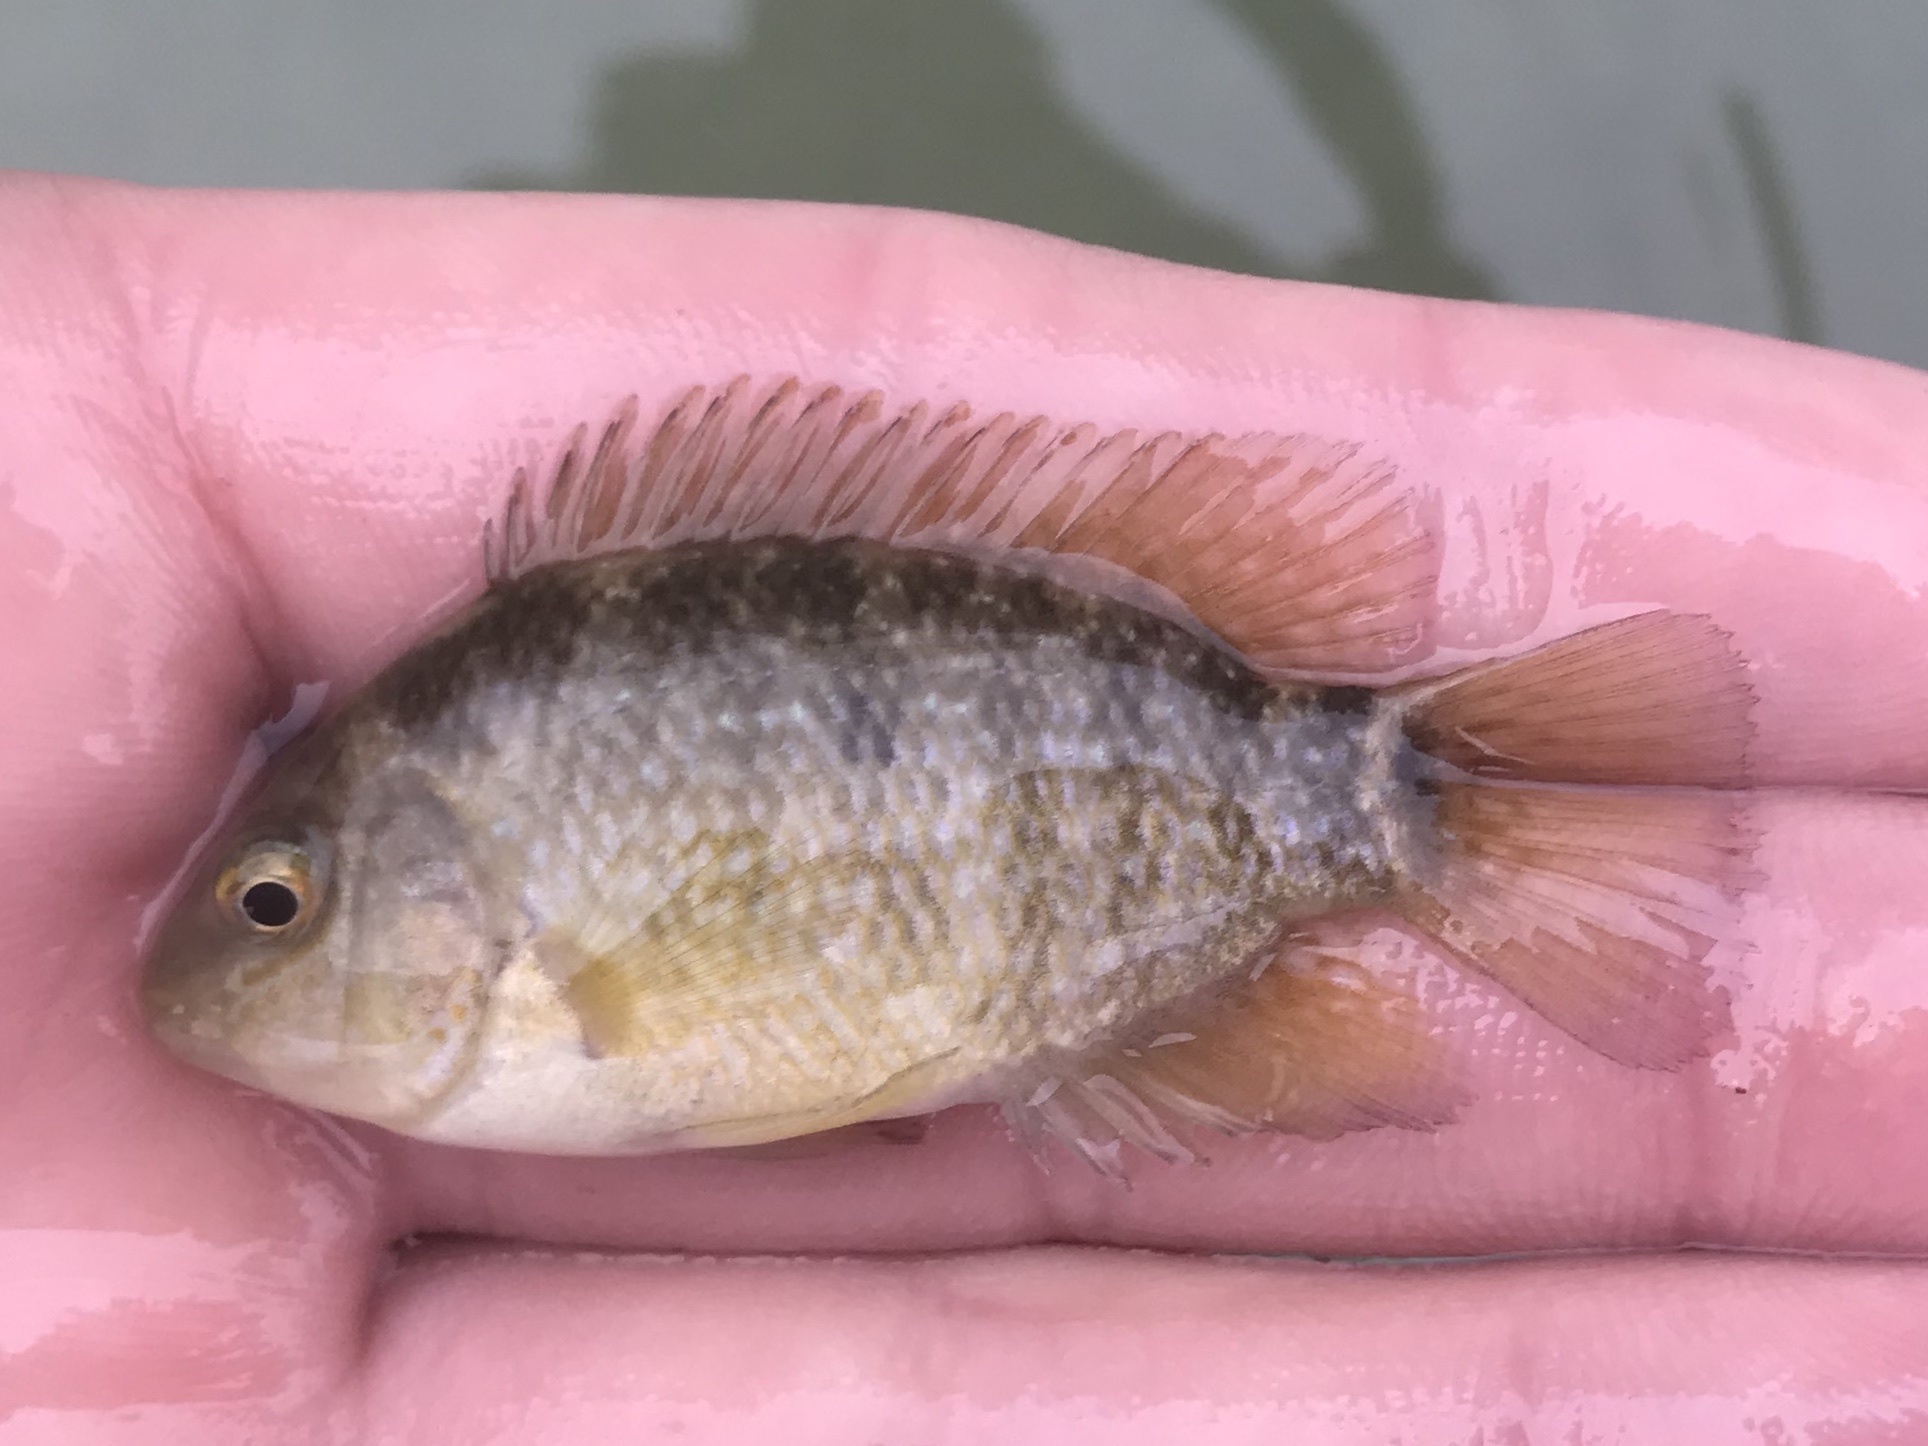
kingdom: Animalia
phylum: Chordata
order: Perciformes
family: Cichlidae
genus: Herichthys
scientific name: Herichthys cyanoguttatus
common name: Rio grande cichlid
